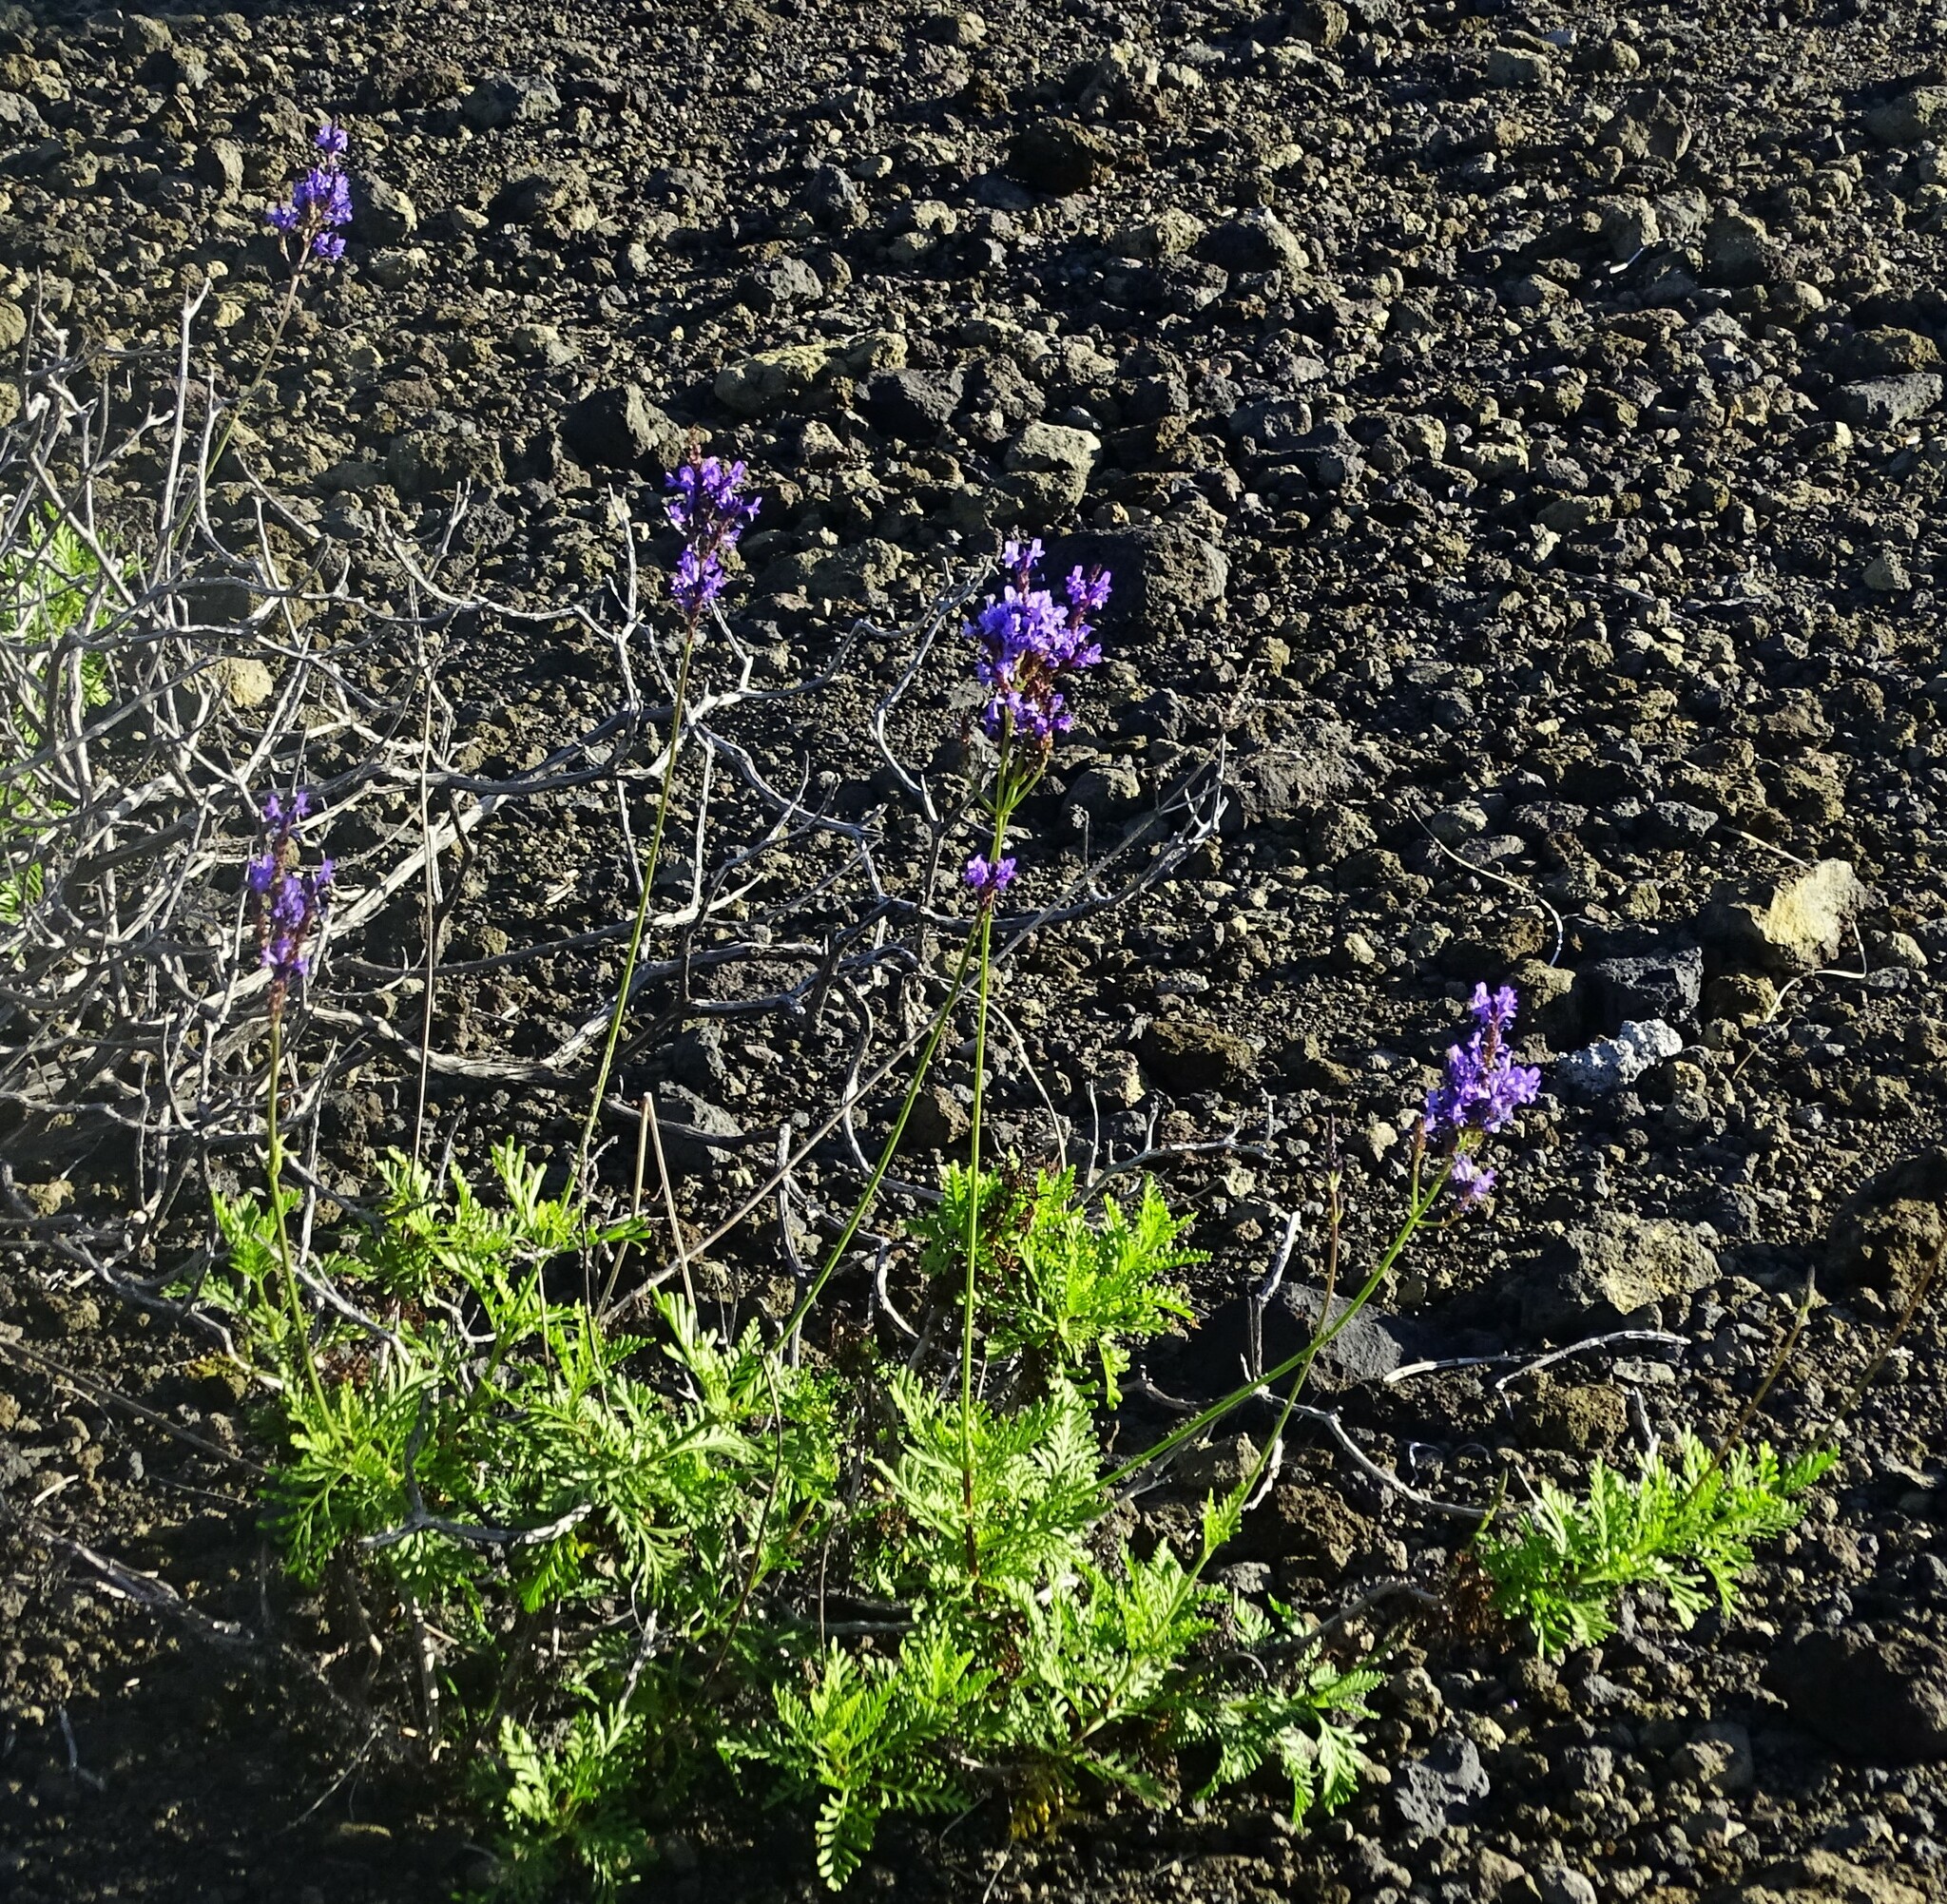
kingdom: Plantae
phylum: Tracheophyta
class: Magnoliopsida
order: Lamiales
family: Lamiaceae
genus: Lavandula
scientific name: Lavandula canariensis
